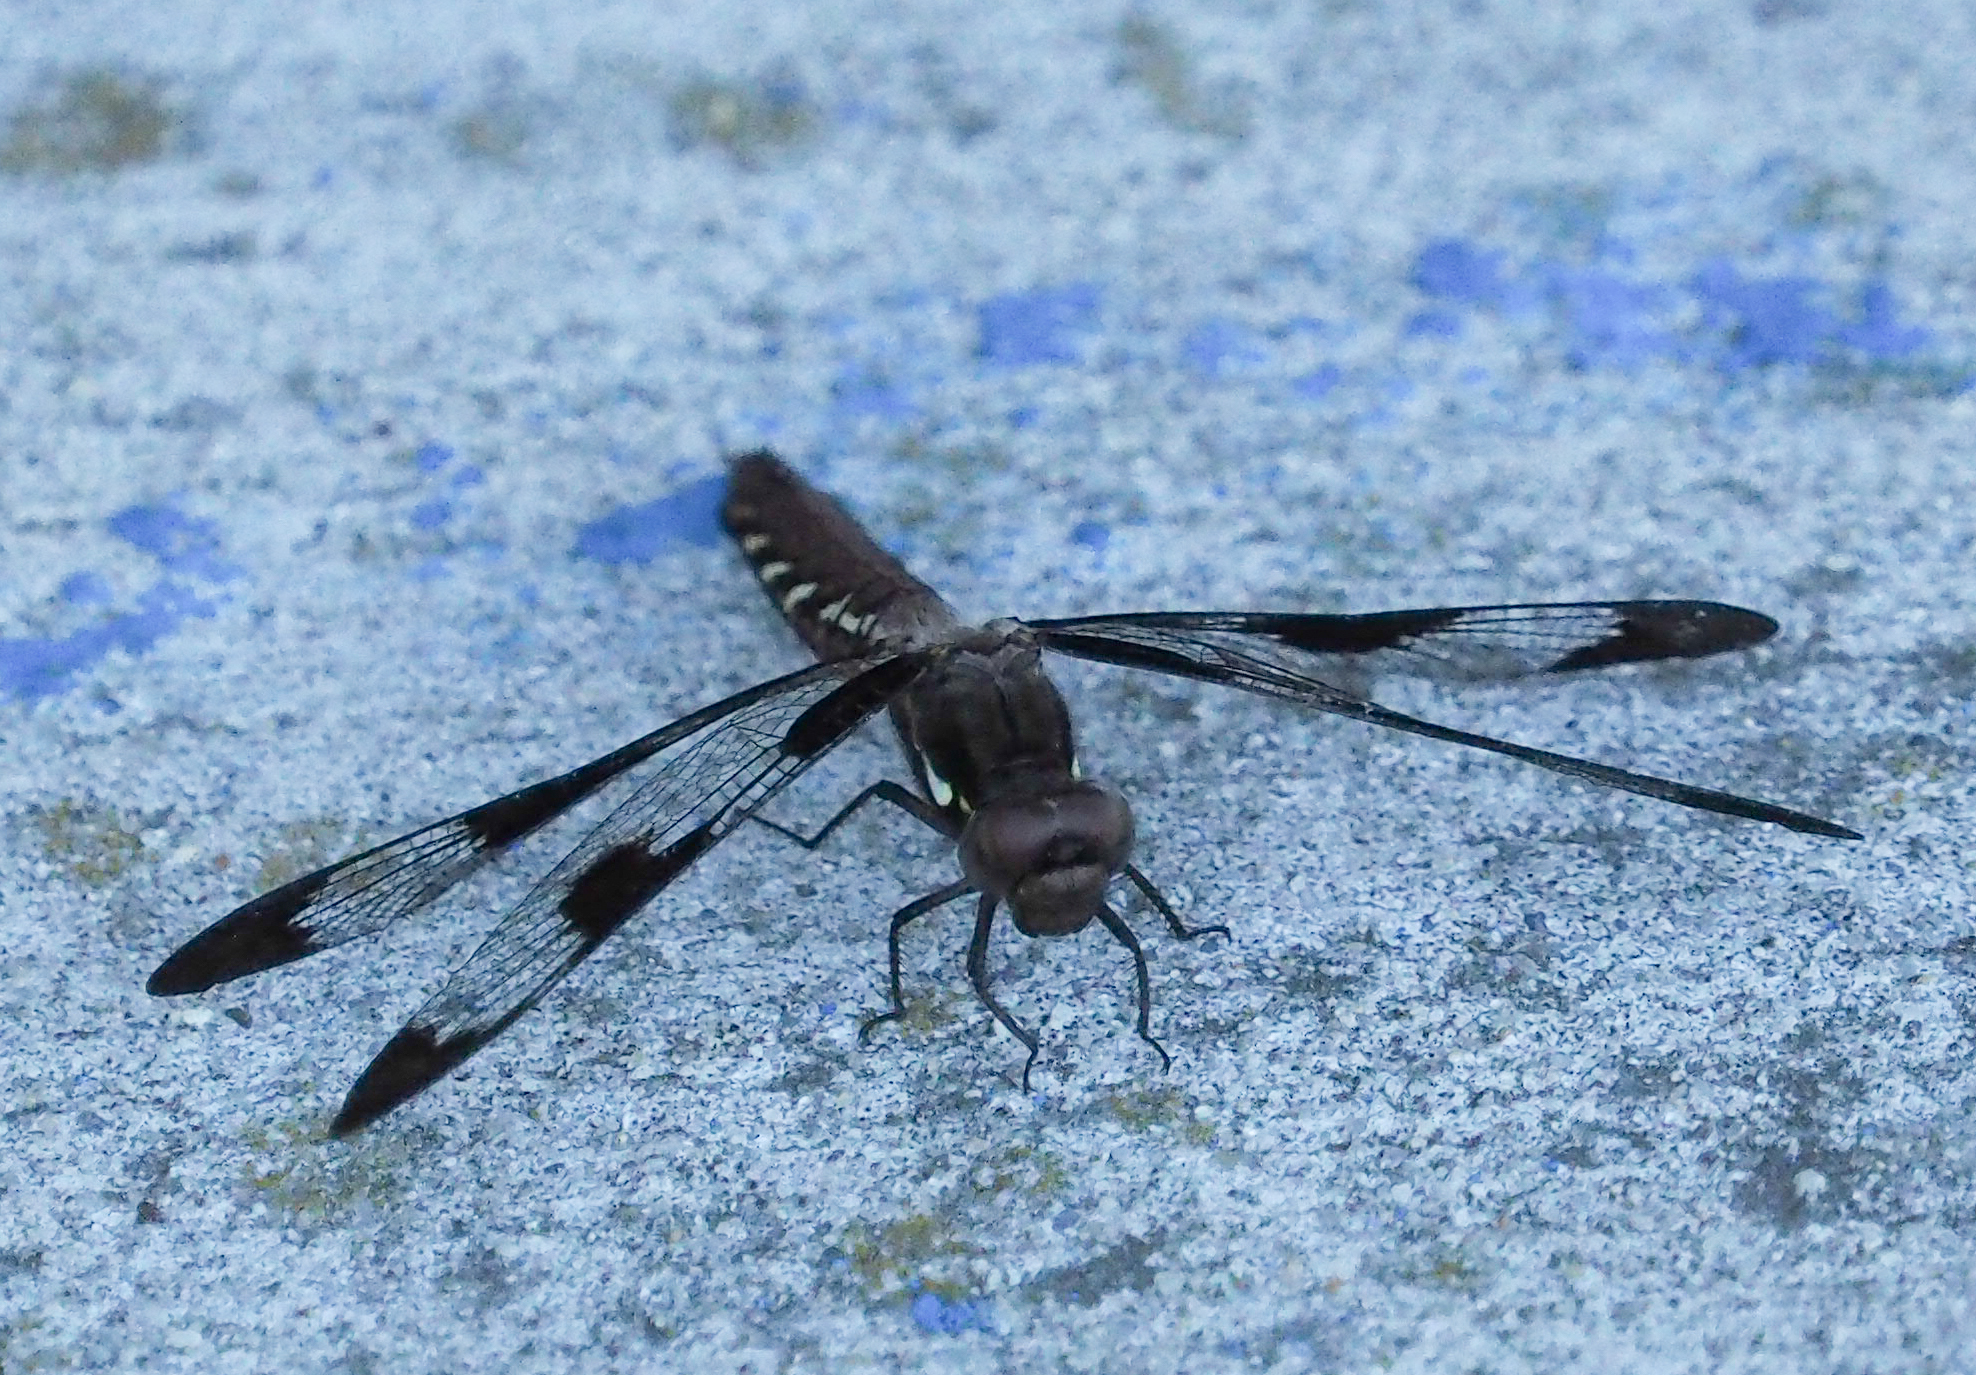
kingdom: Animalia
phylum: Arthropoda
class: Insecta
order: Odonata
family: Libellulidae
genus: Plathemis
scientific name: Plathemis lydia
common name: Common whitetail
